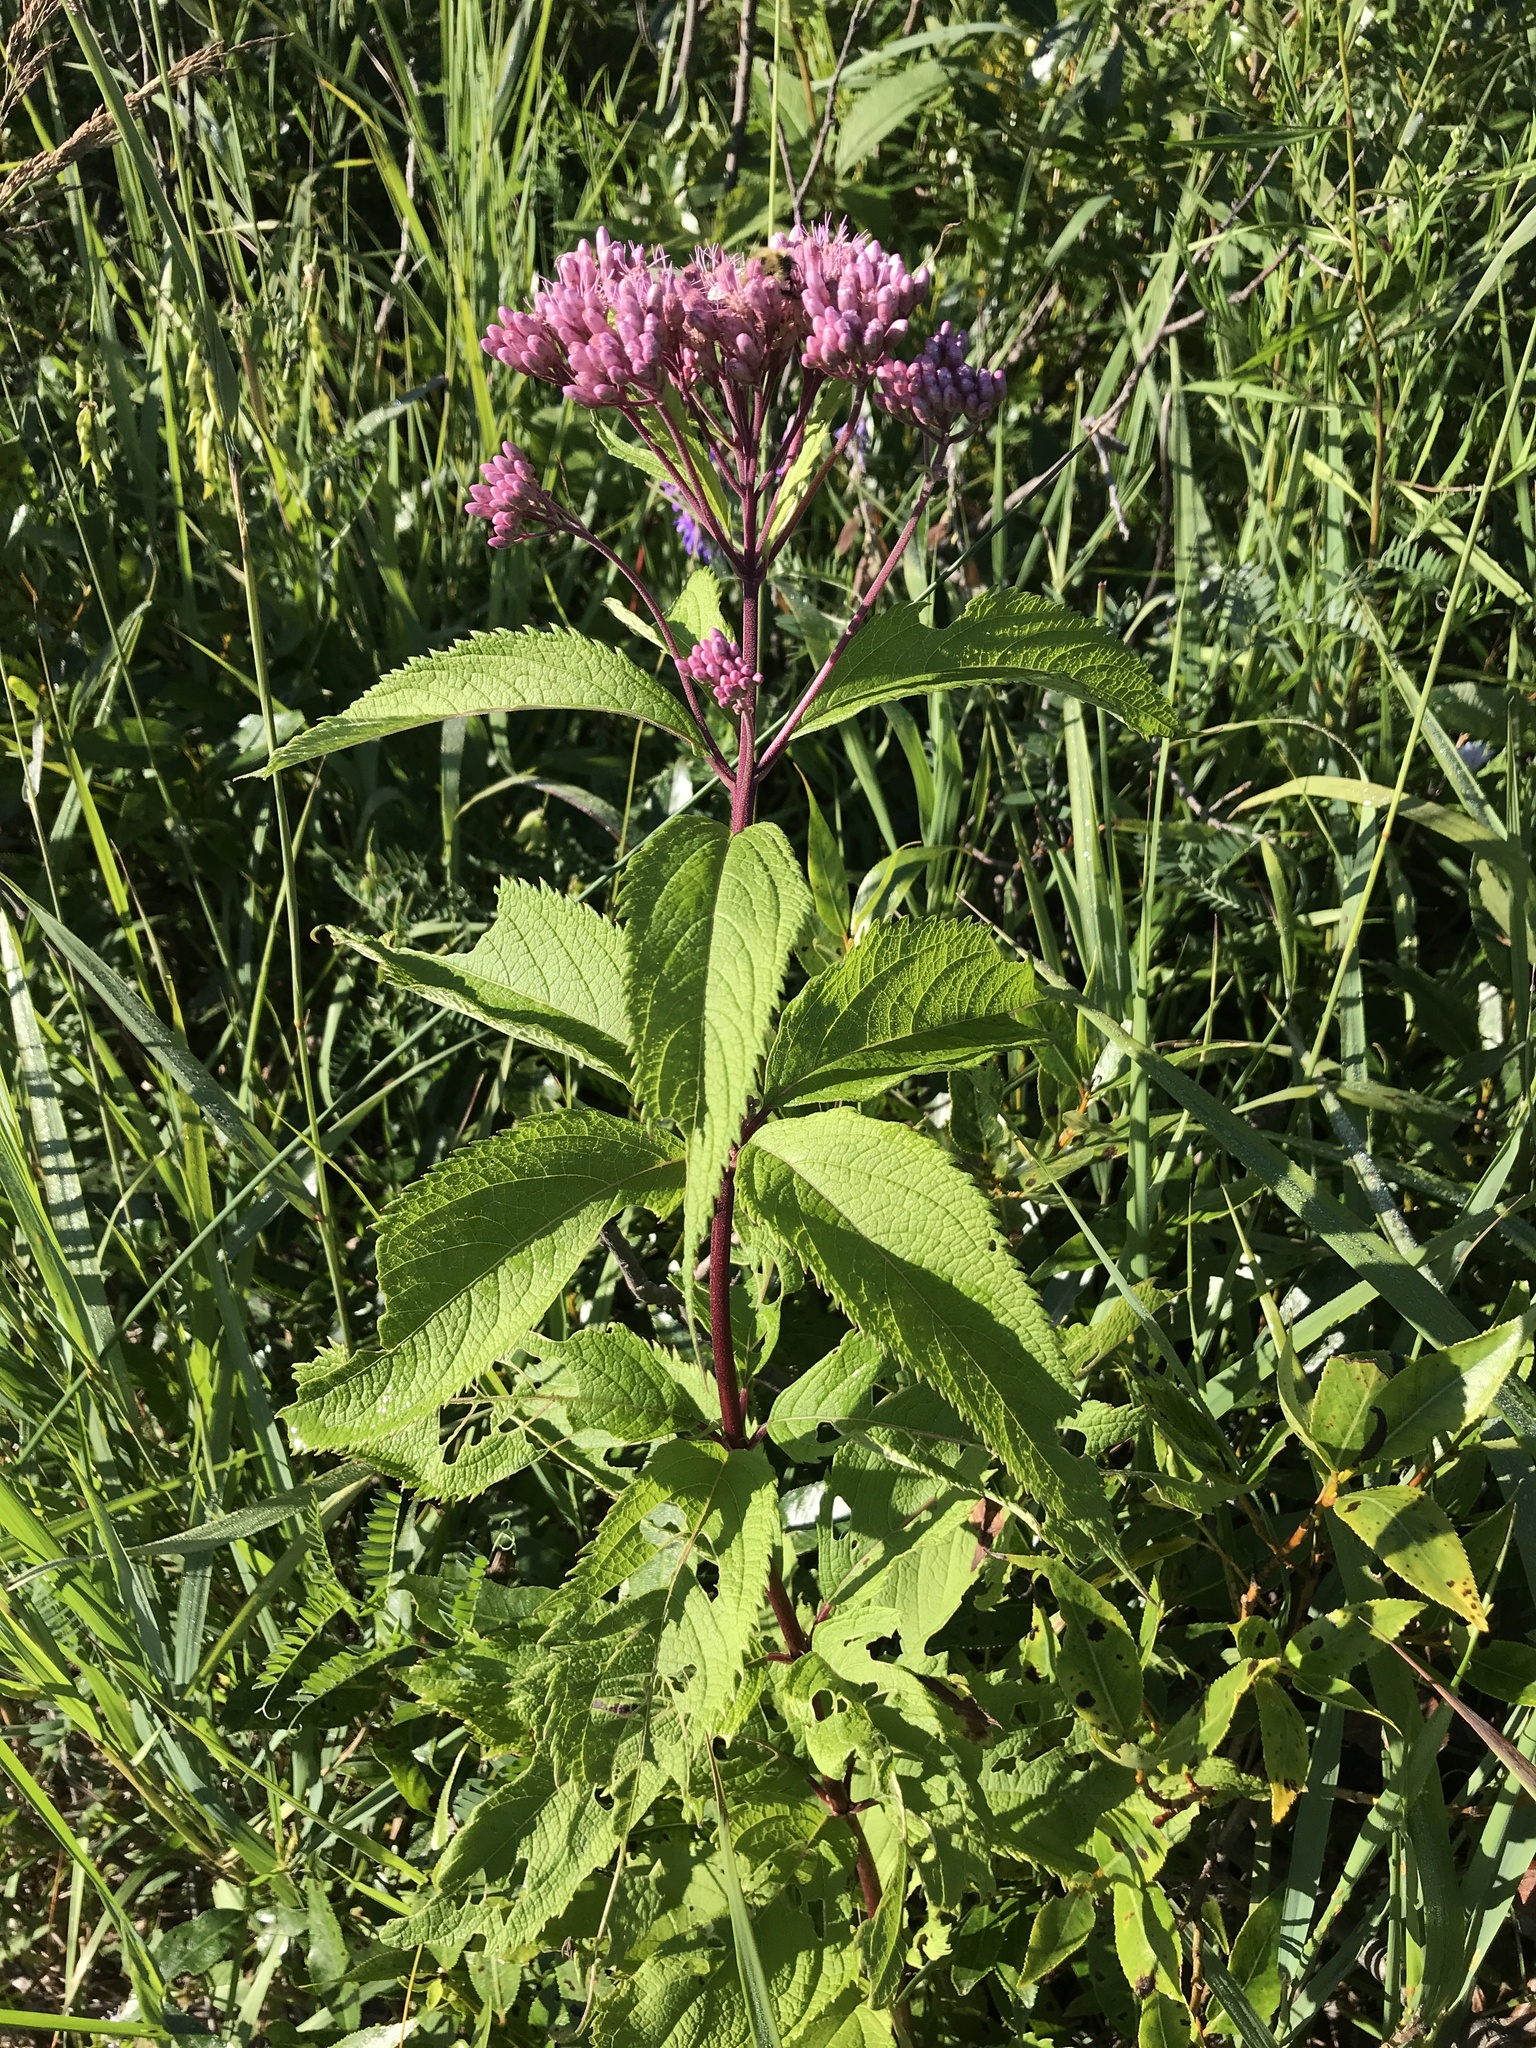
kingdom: Plantae
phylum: Tracheophyta
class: Magnoliopsida
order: Asterales
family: Asteraceae
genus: Eutrochium
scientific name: Eutrochium maculatum
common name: Spotted joe pye weed
